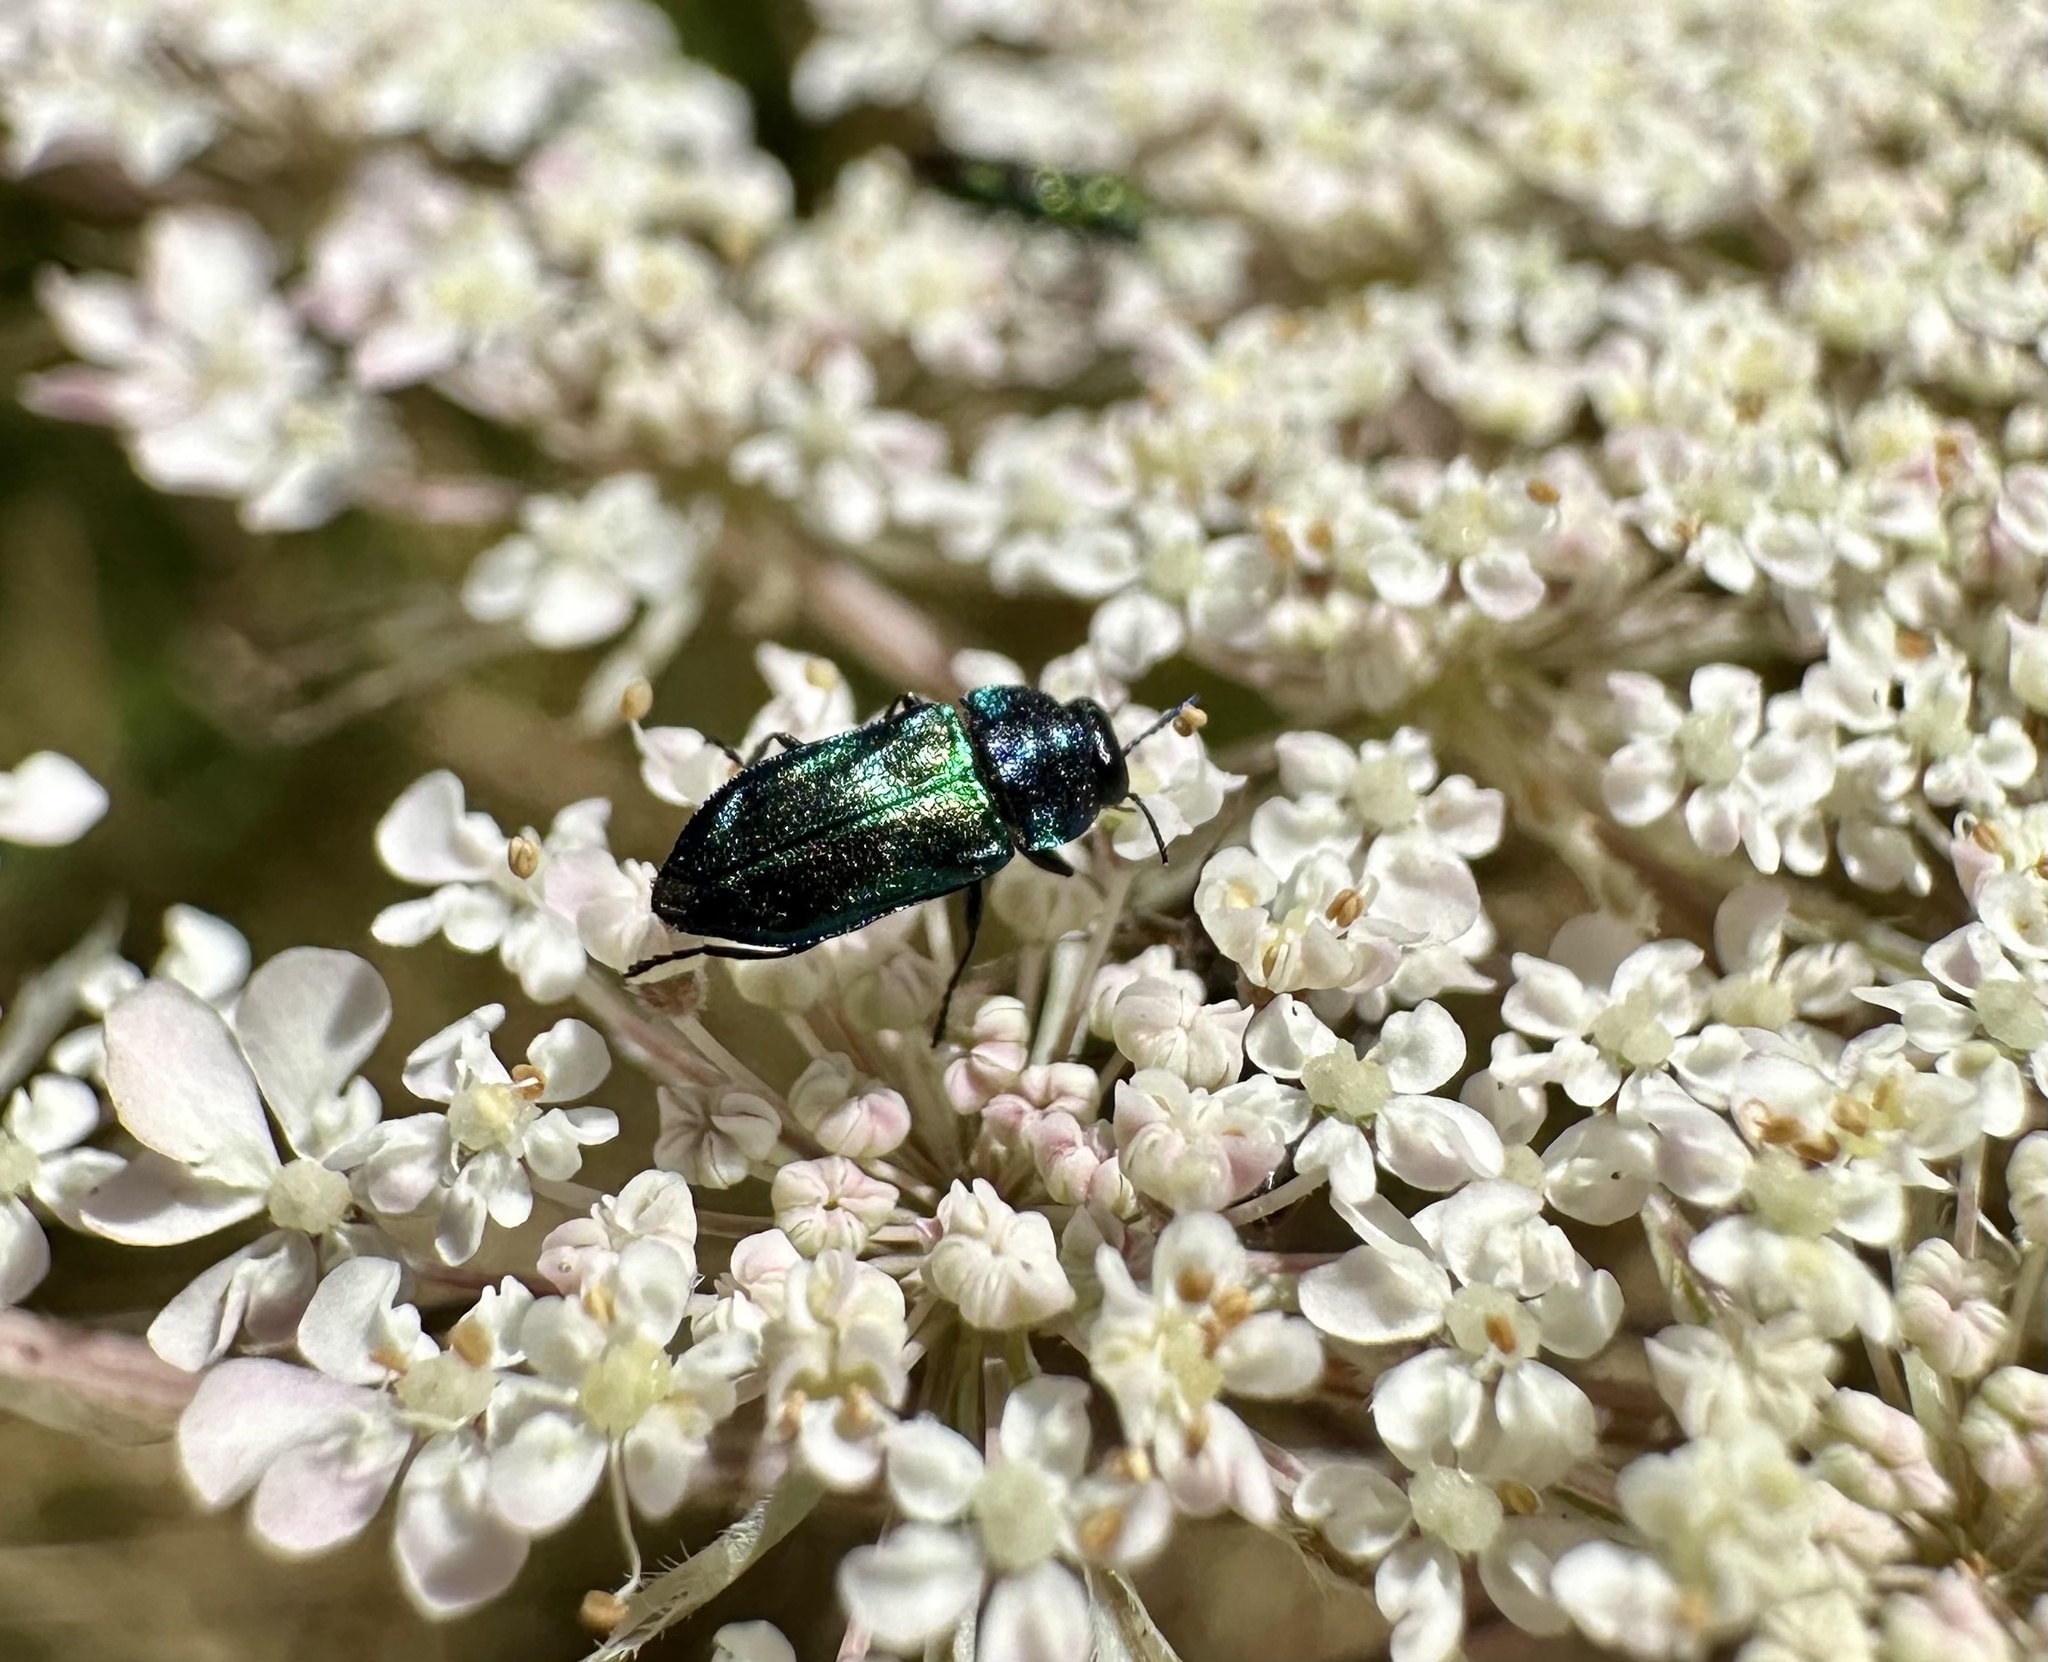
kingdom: Animalia
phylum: Arthropoda
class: Insecta
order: Coleoptera
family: Buprestidae
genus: Bilyaxia
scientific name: Bilyaxia concinna
